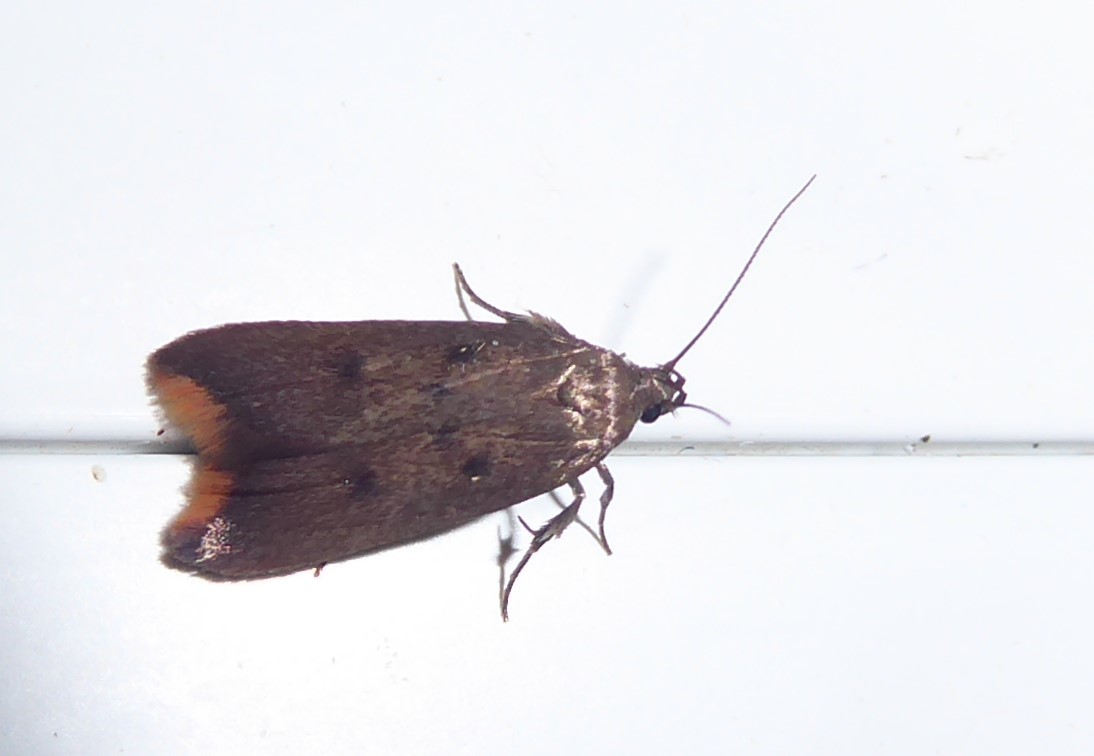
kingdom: Animalia
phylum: Arthropoda
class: Insecta
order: Lepidoptera
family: Oecophoridae
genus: Tachystola
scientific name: Tachystola acroxantha
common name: Ruddy streak
